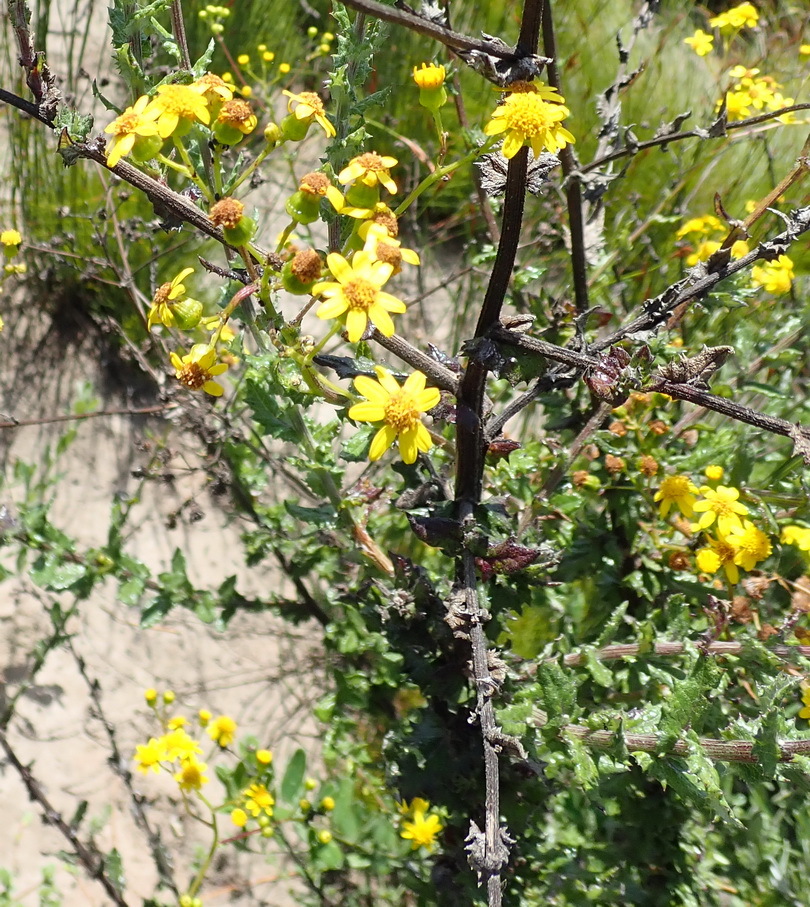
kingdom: Plantae
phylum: Tracheophyta
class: Magnoliopsida
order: Asterales
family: Asteraceae
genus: Senecio
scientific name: Senecio ilicifolius
